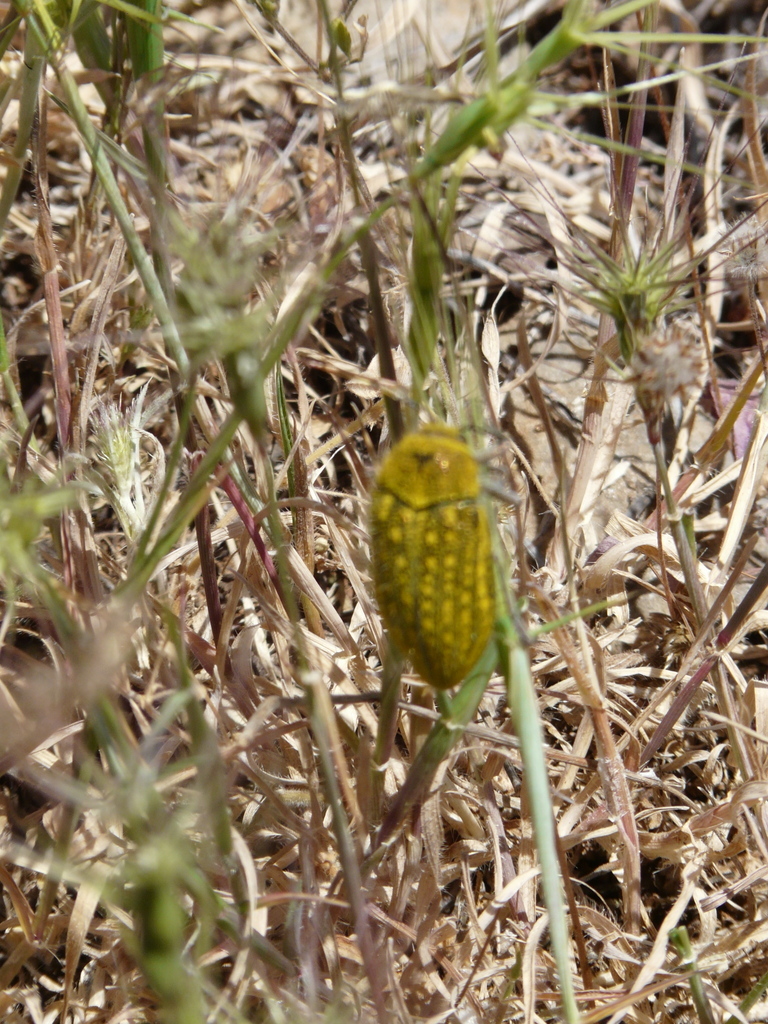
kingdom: Animalia
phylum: Arthropoda
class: Insecta
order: Coleoptera
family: Buprestidae
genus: Julodis
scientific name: Julodis ehrenbergii
